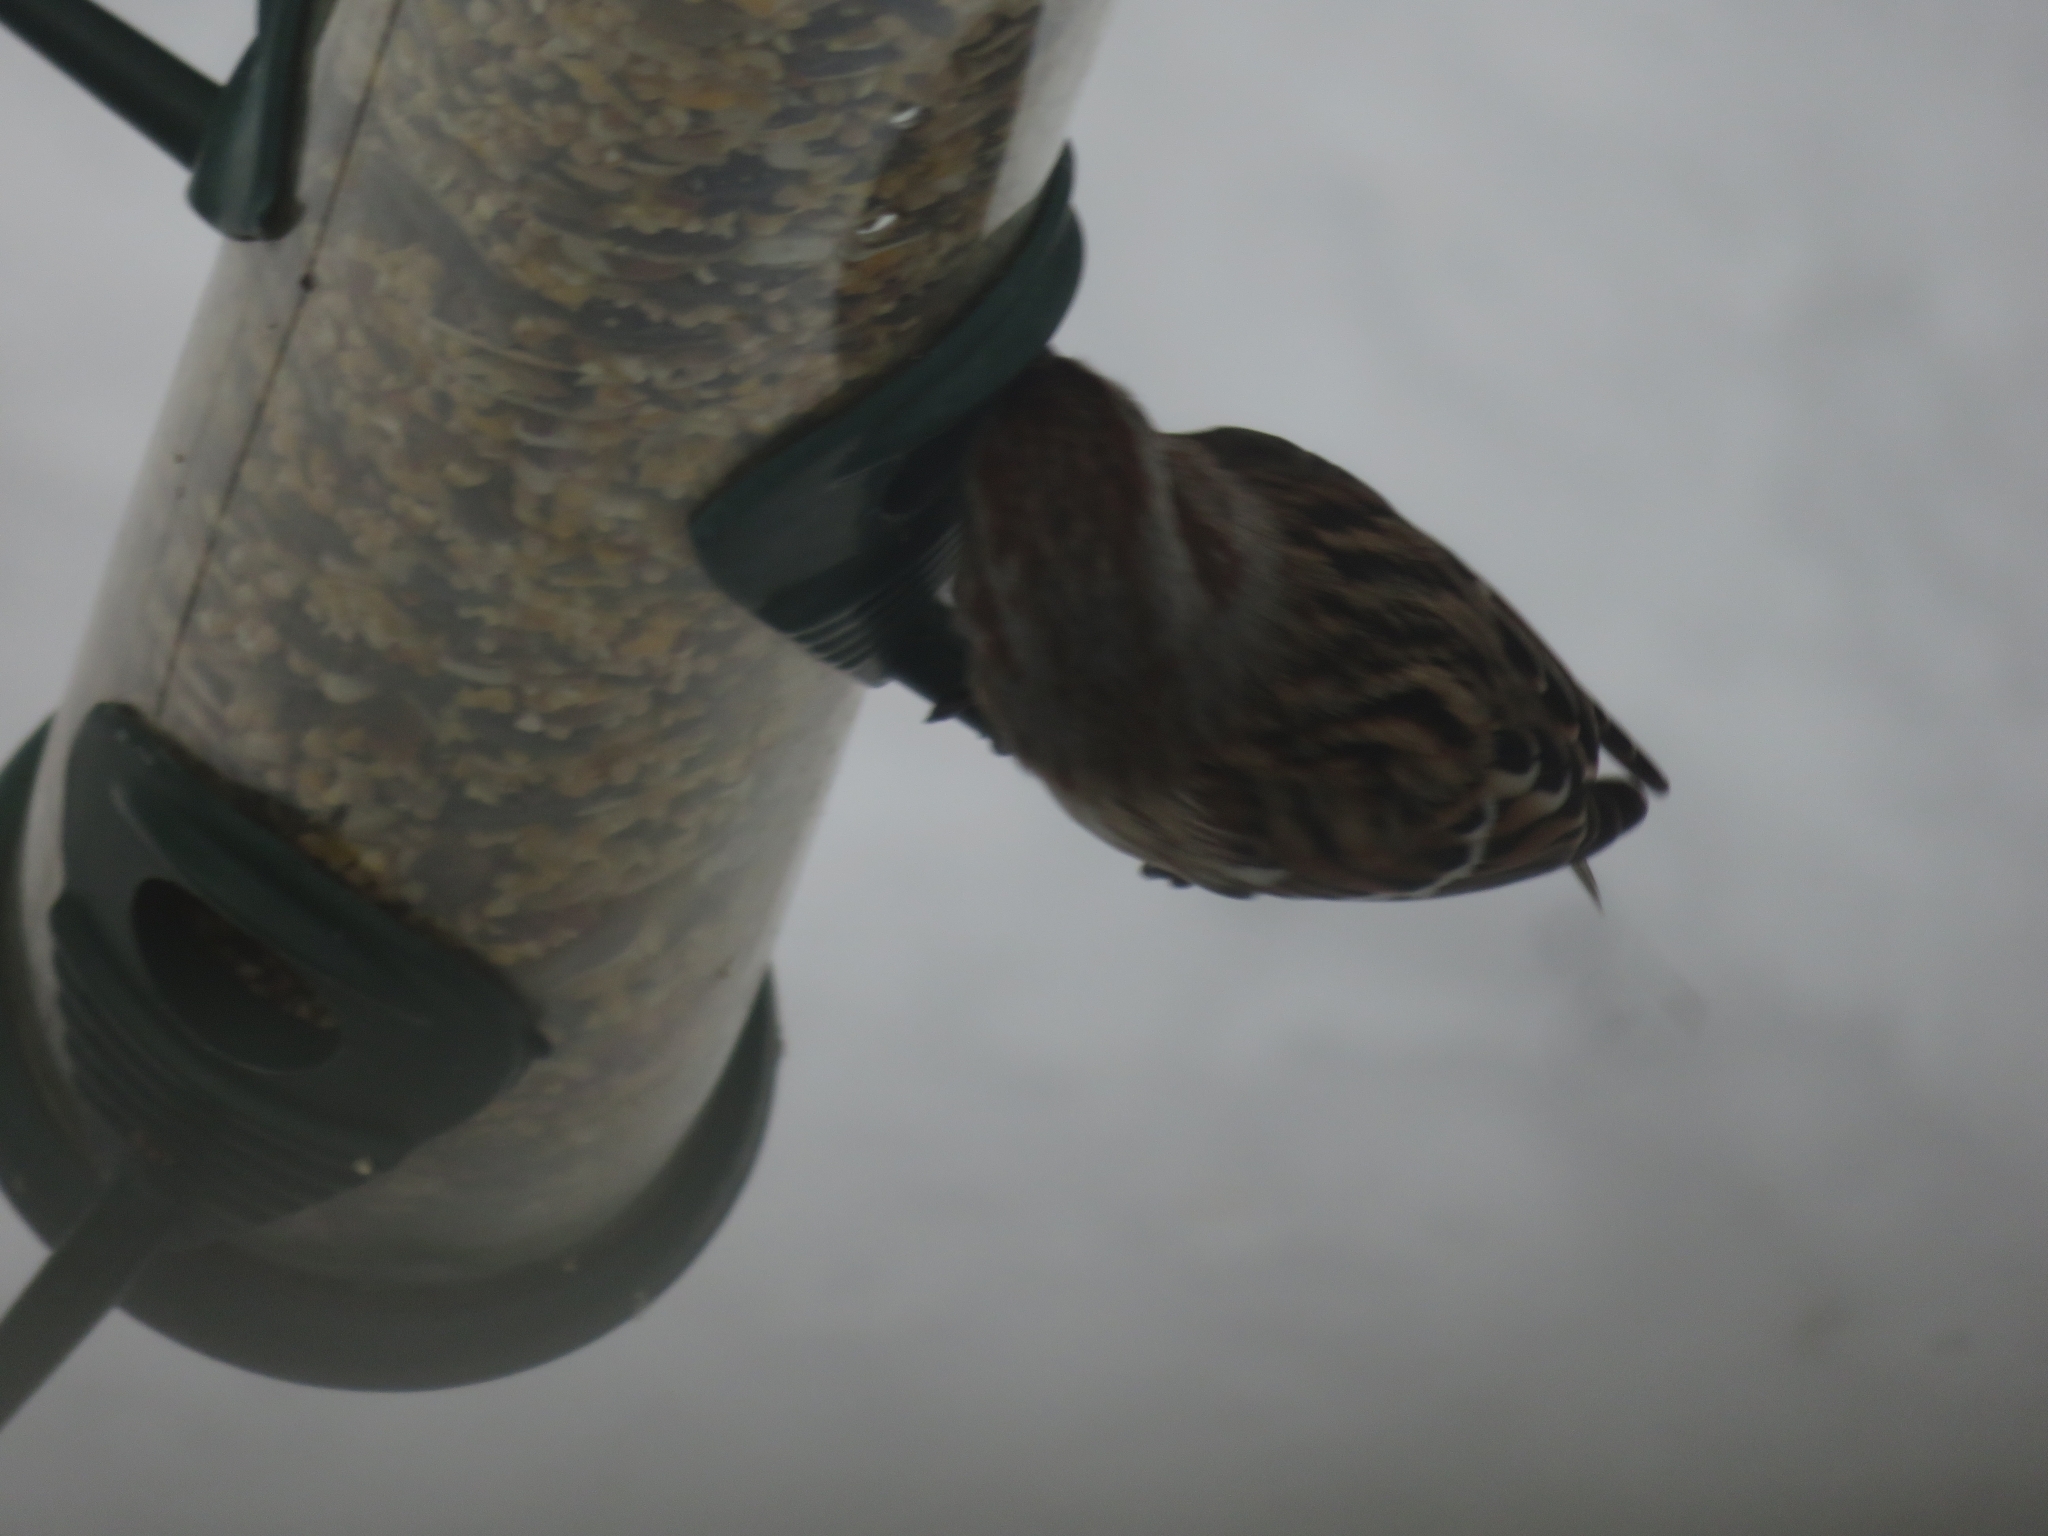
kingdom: Animalia
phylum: Chordata
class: Aves
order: Passeriformes
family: Passerellidae
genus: Spizelloides
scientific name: Spizelloides arborea
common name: American tree sparrow
